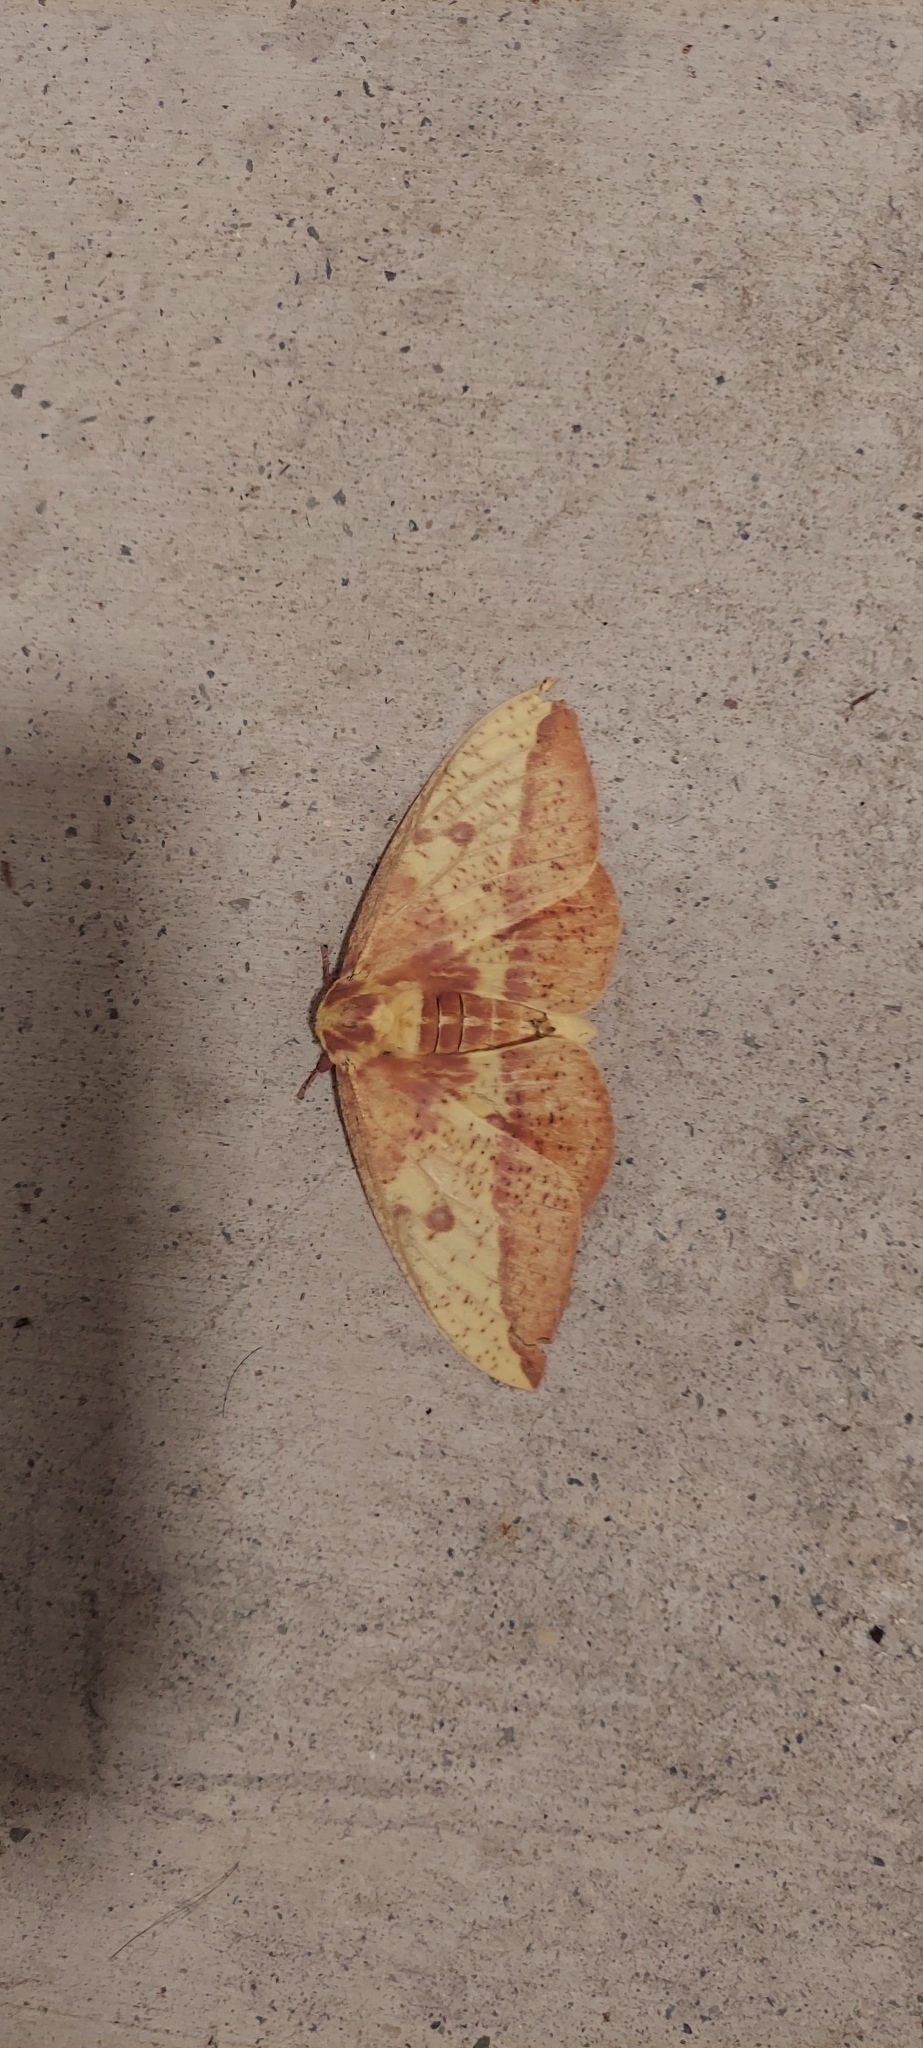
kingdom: Animalia
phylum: Arthropoda
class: Insecta
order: Lepidoptera
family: Saturniidae
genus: Eacles
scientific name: Eacles imperialis
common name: Imperial moth
